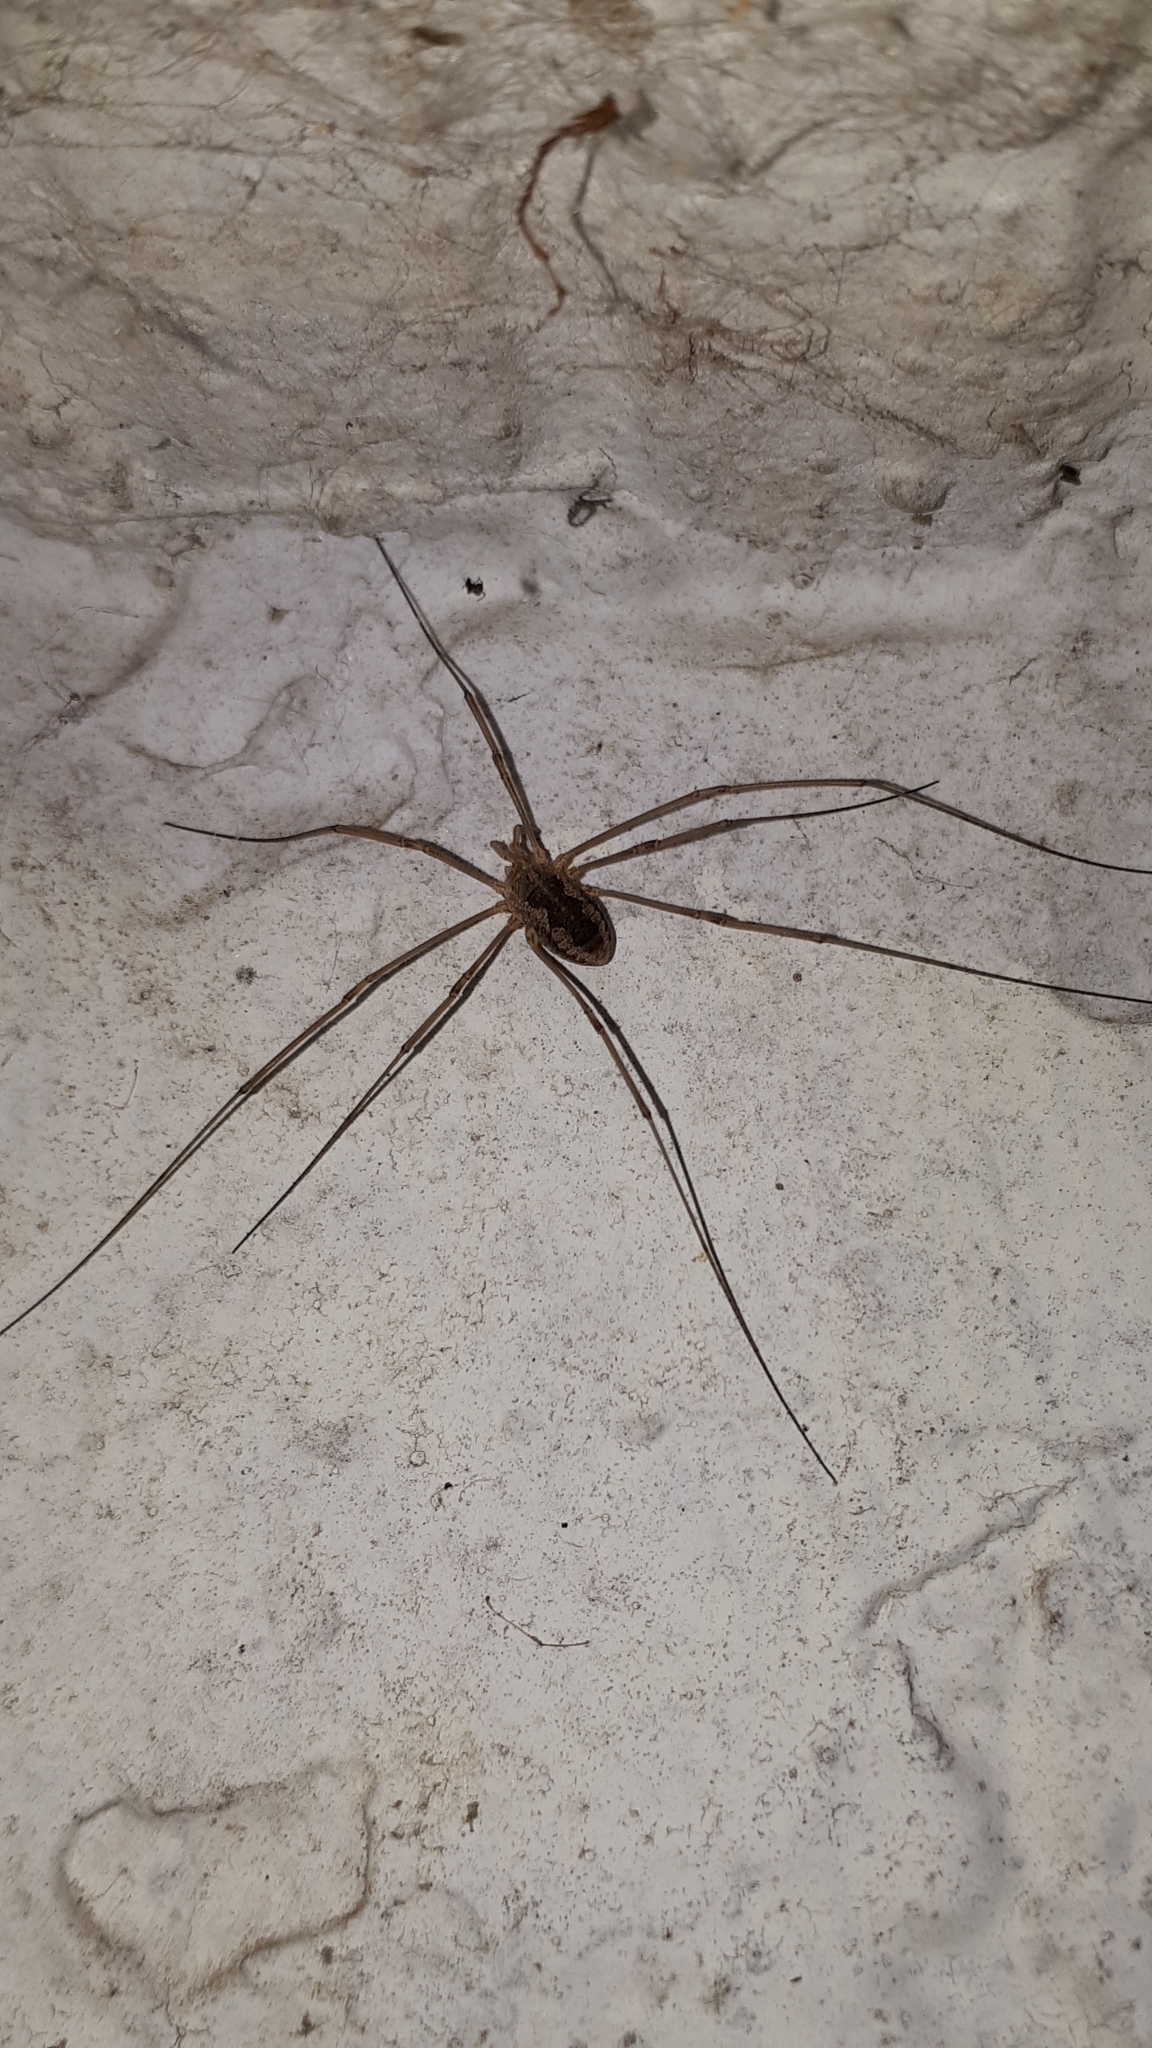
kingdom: Animalia
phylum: Arthropoda
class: Arachnida
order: Opiliones
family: Phalangiidae
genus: Phalangium
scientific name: Phalangium opilio
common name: Daddy longleg
